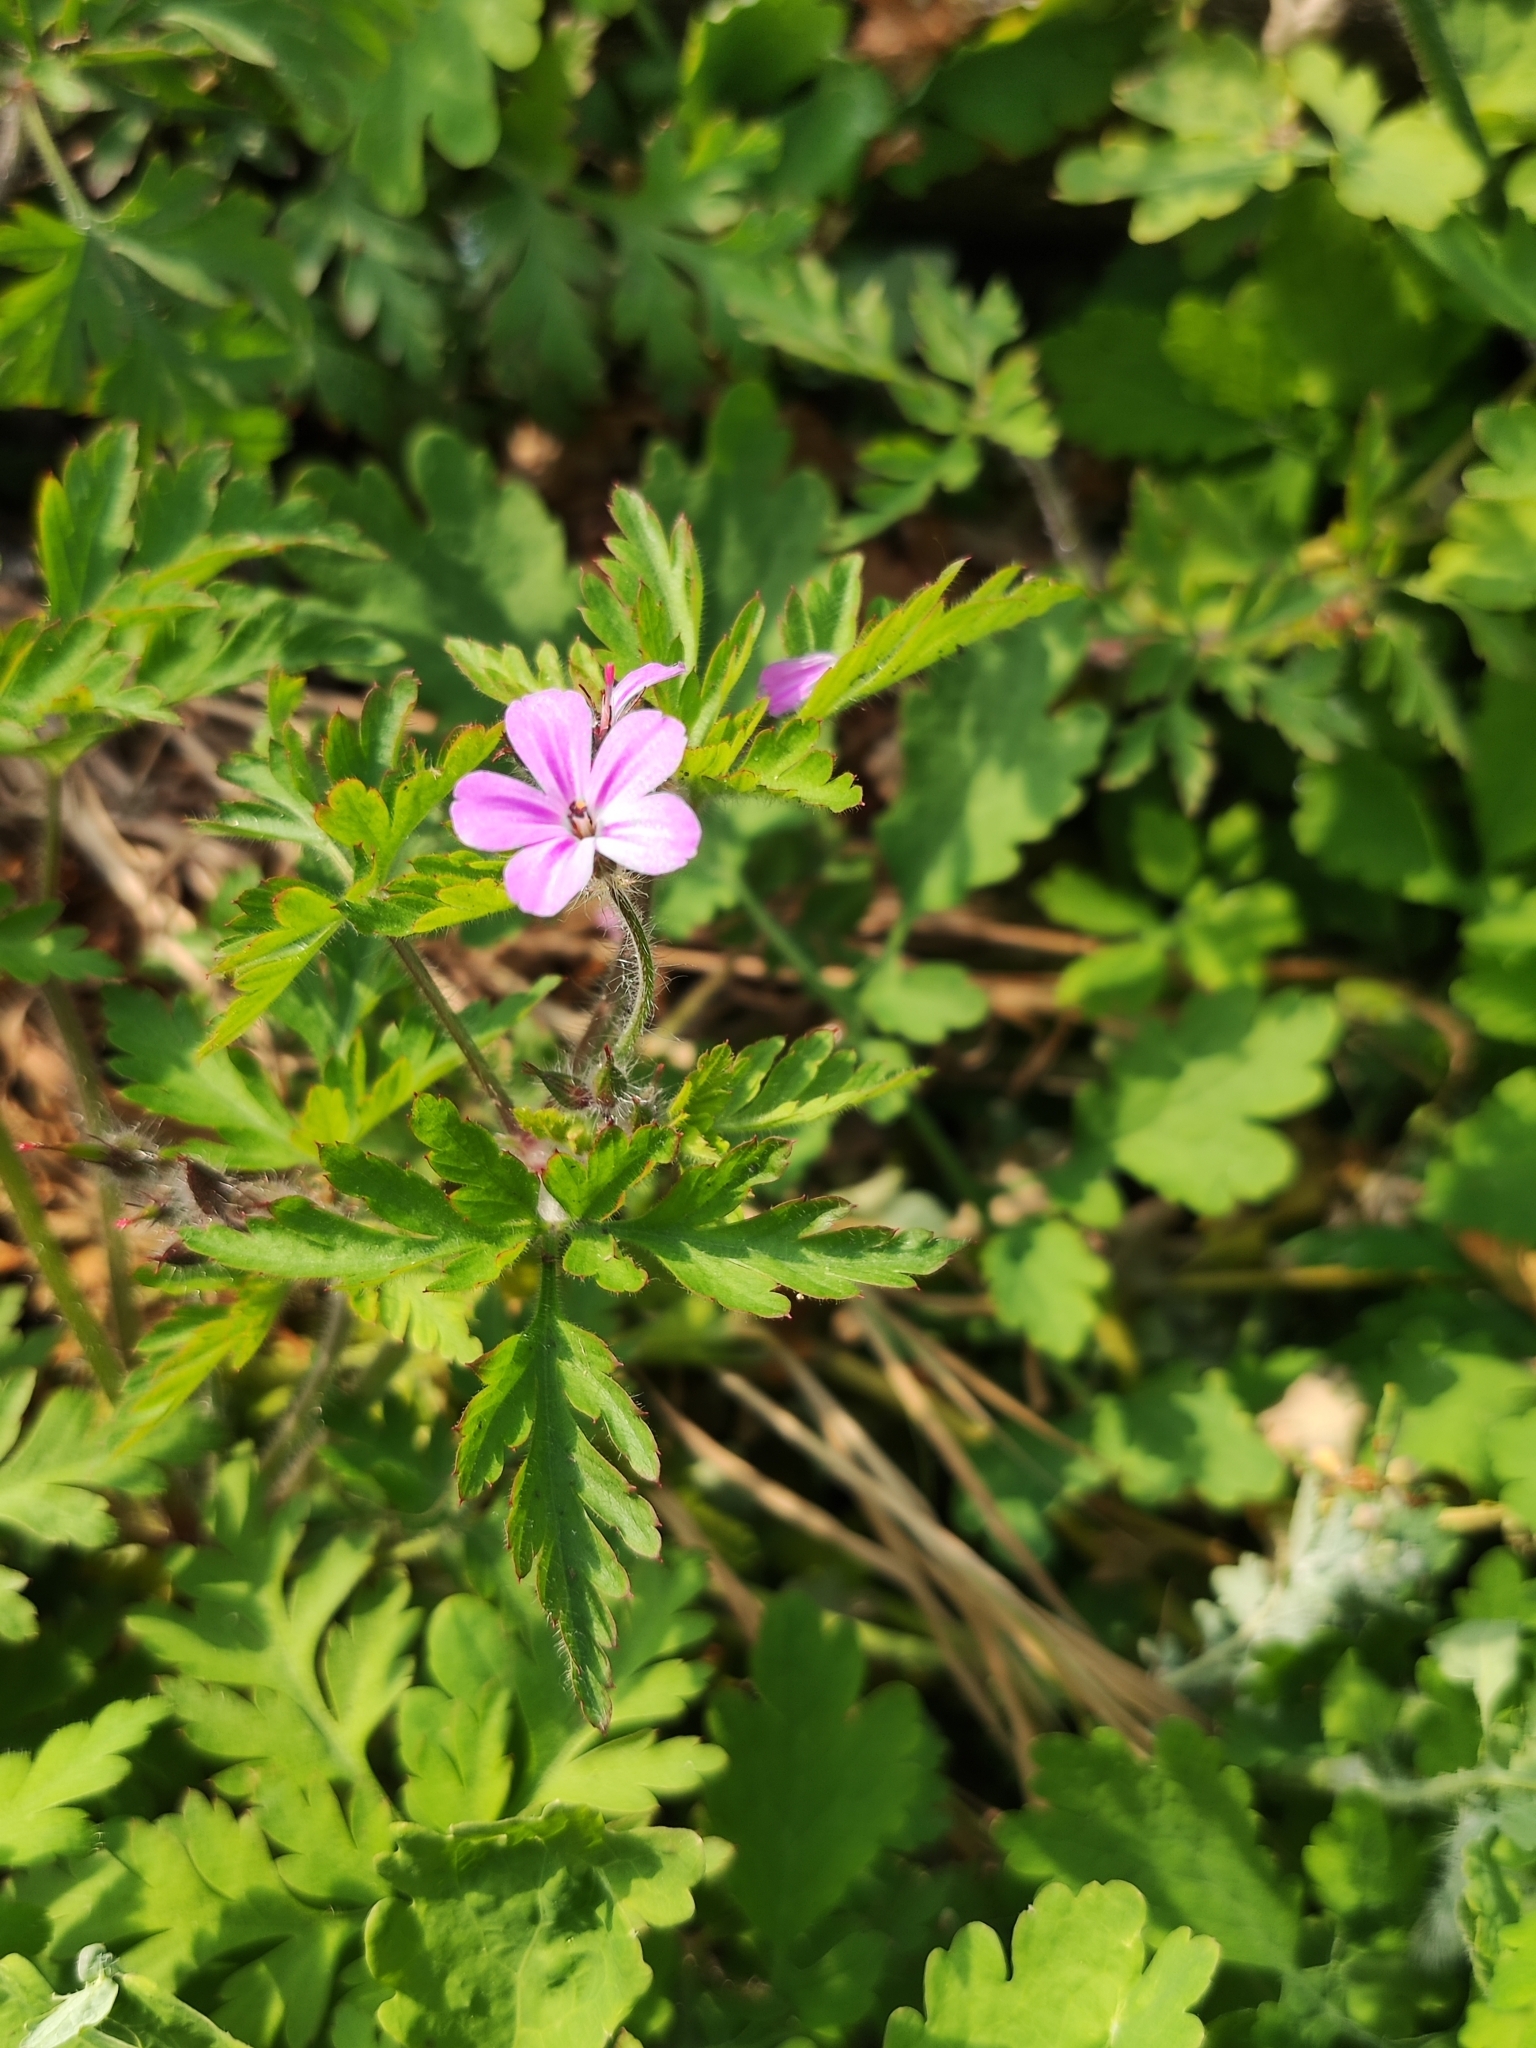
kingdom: Plantae
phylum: Tracheophyta
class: Magnoliopsida
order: Geraniales
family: Geraniaceae
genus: Geranium
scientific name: Geranium robertianum
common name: Herb-robert
